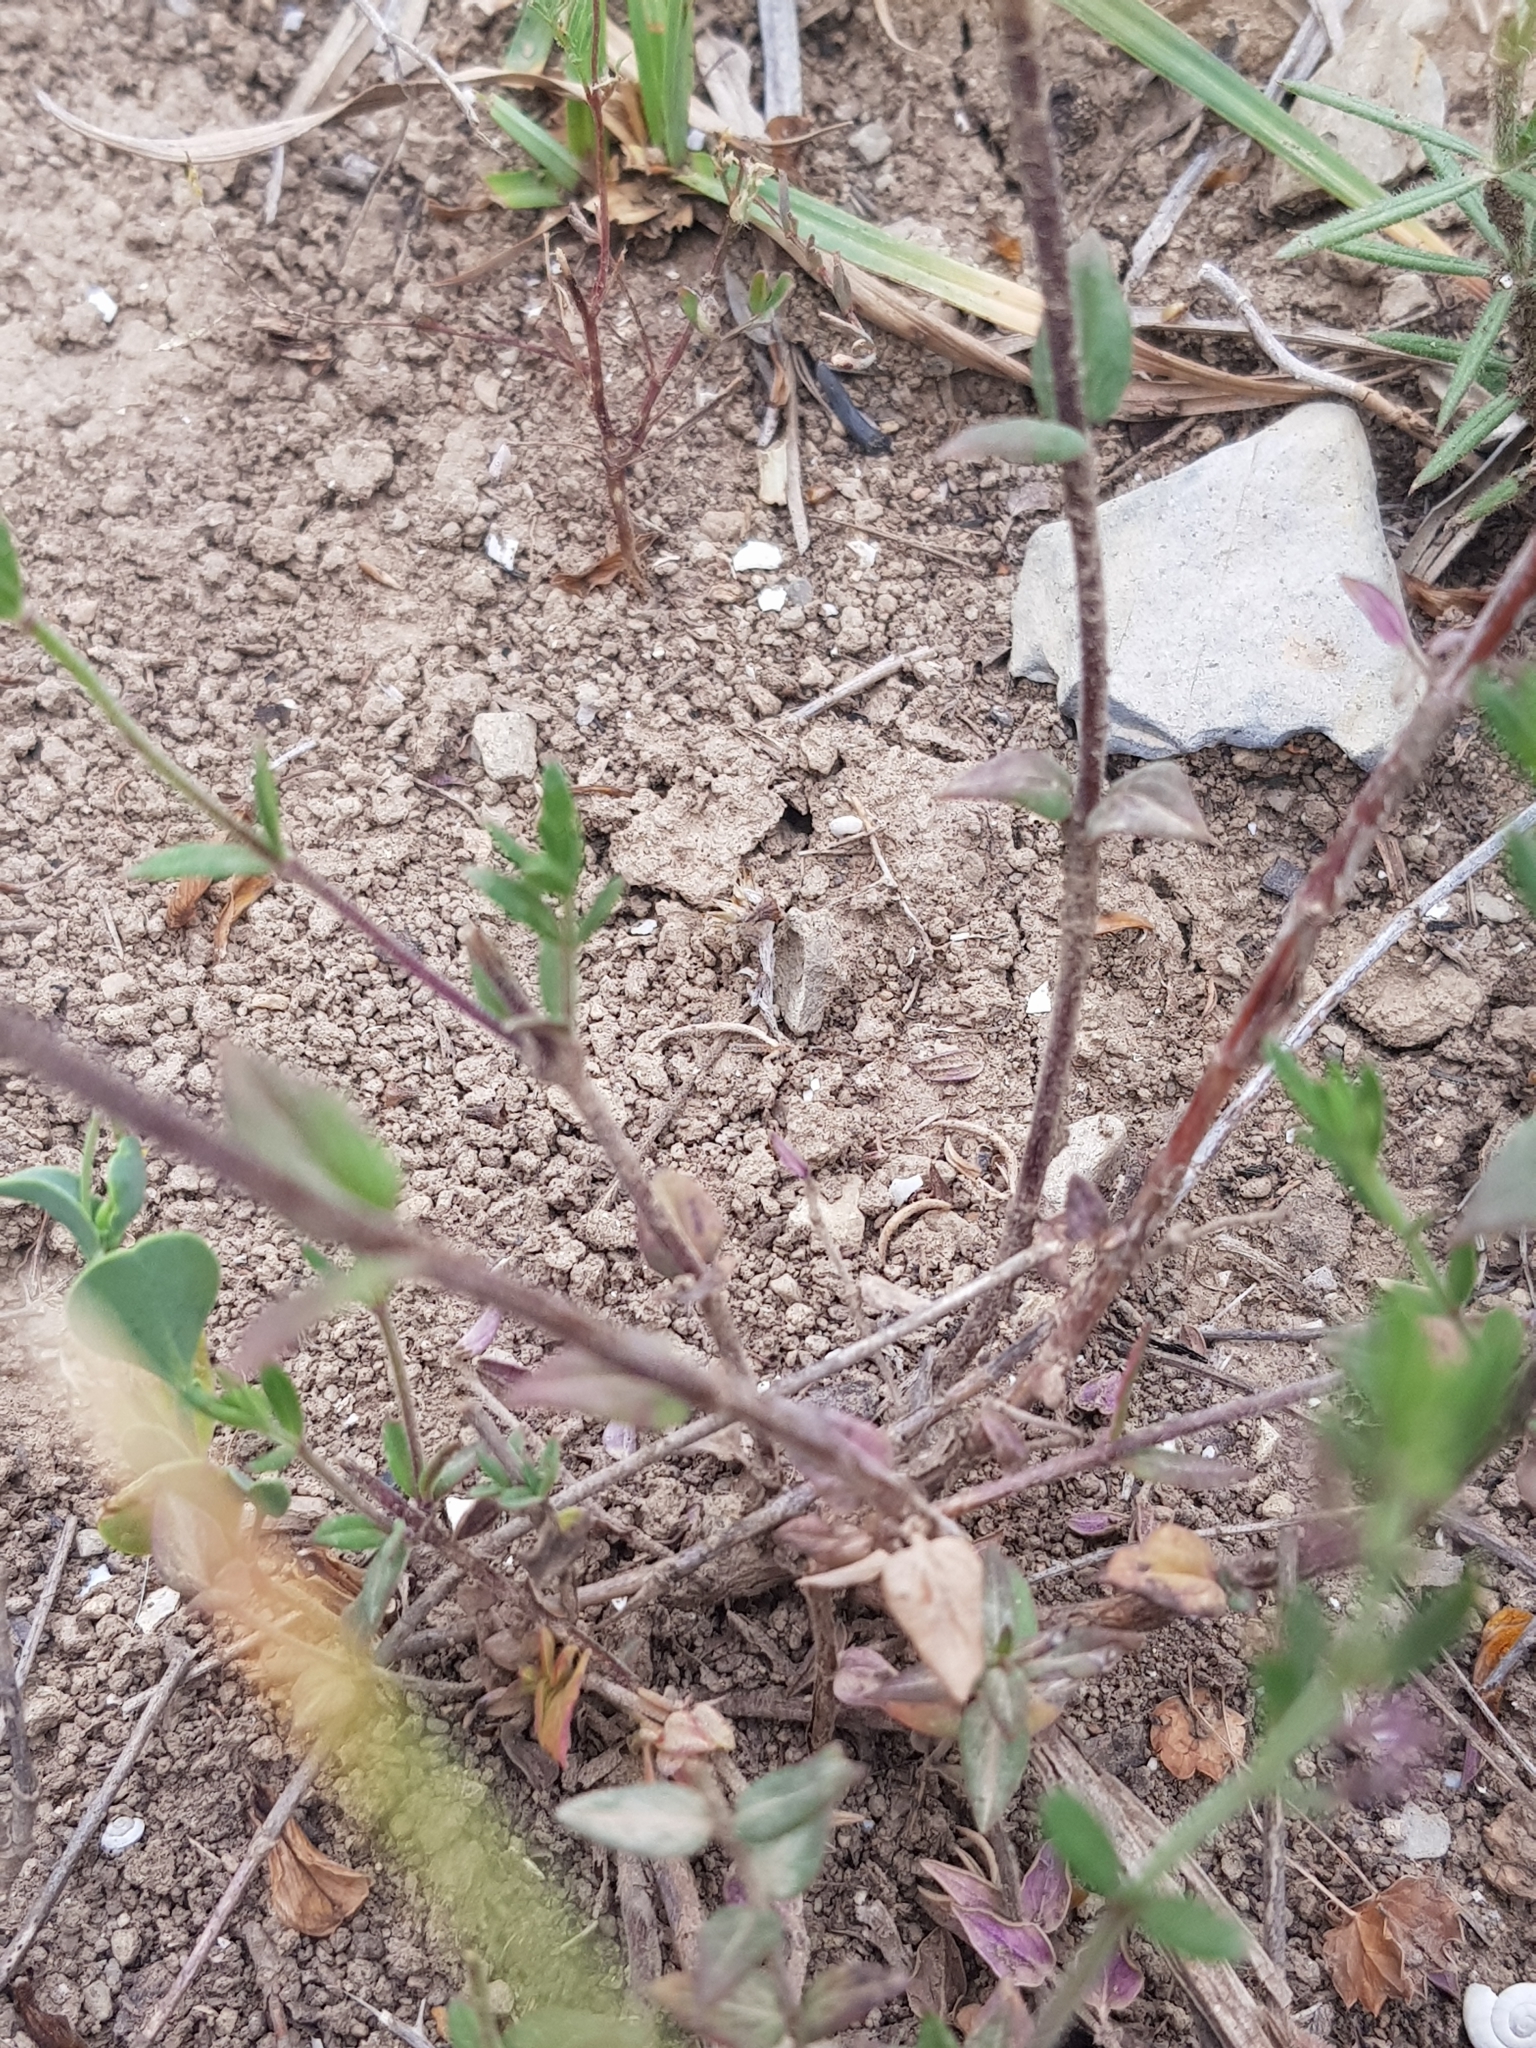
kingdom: Plantae
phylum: Tracheophyta
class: Magnoliopsida
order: Lamiales
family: Lamiaceae
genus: Micromeria
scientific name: Micromeria graeca
